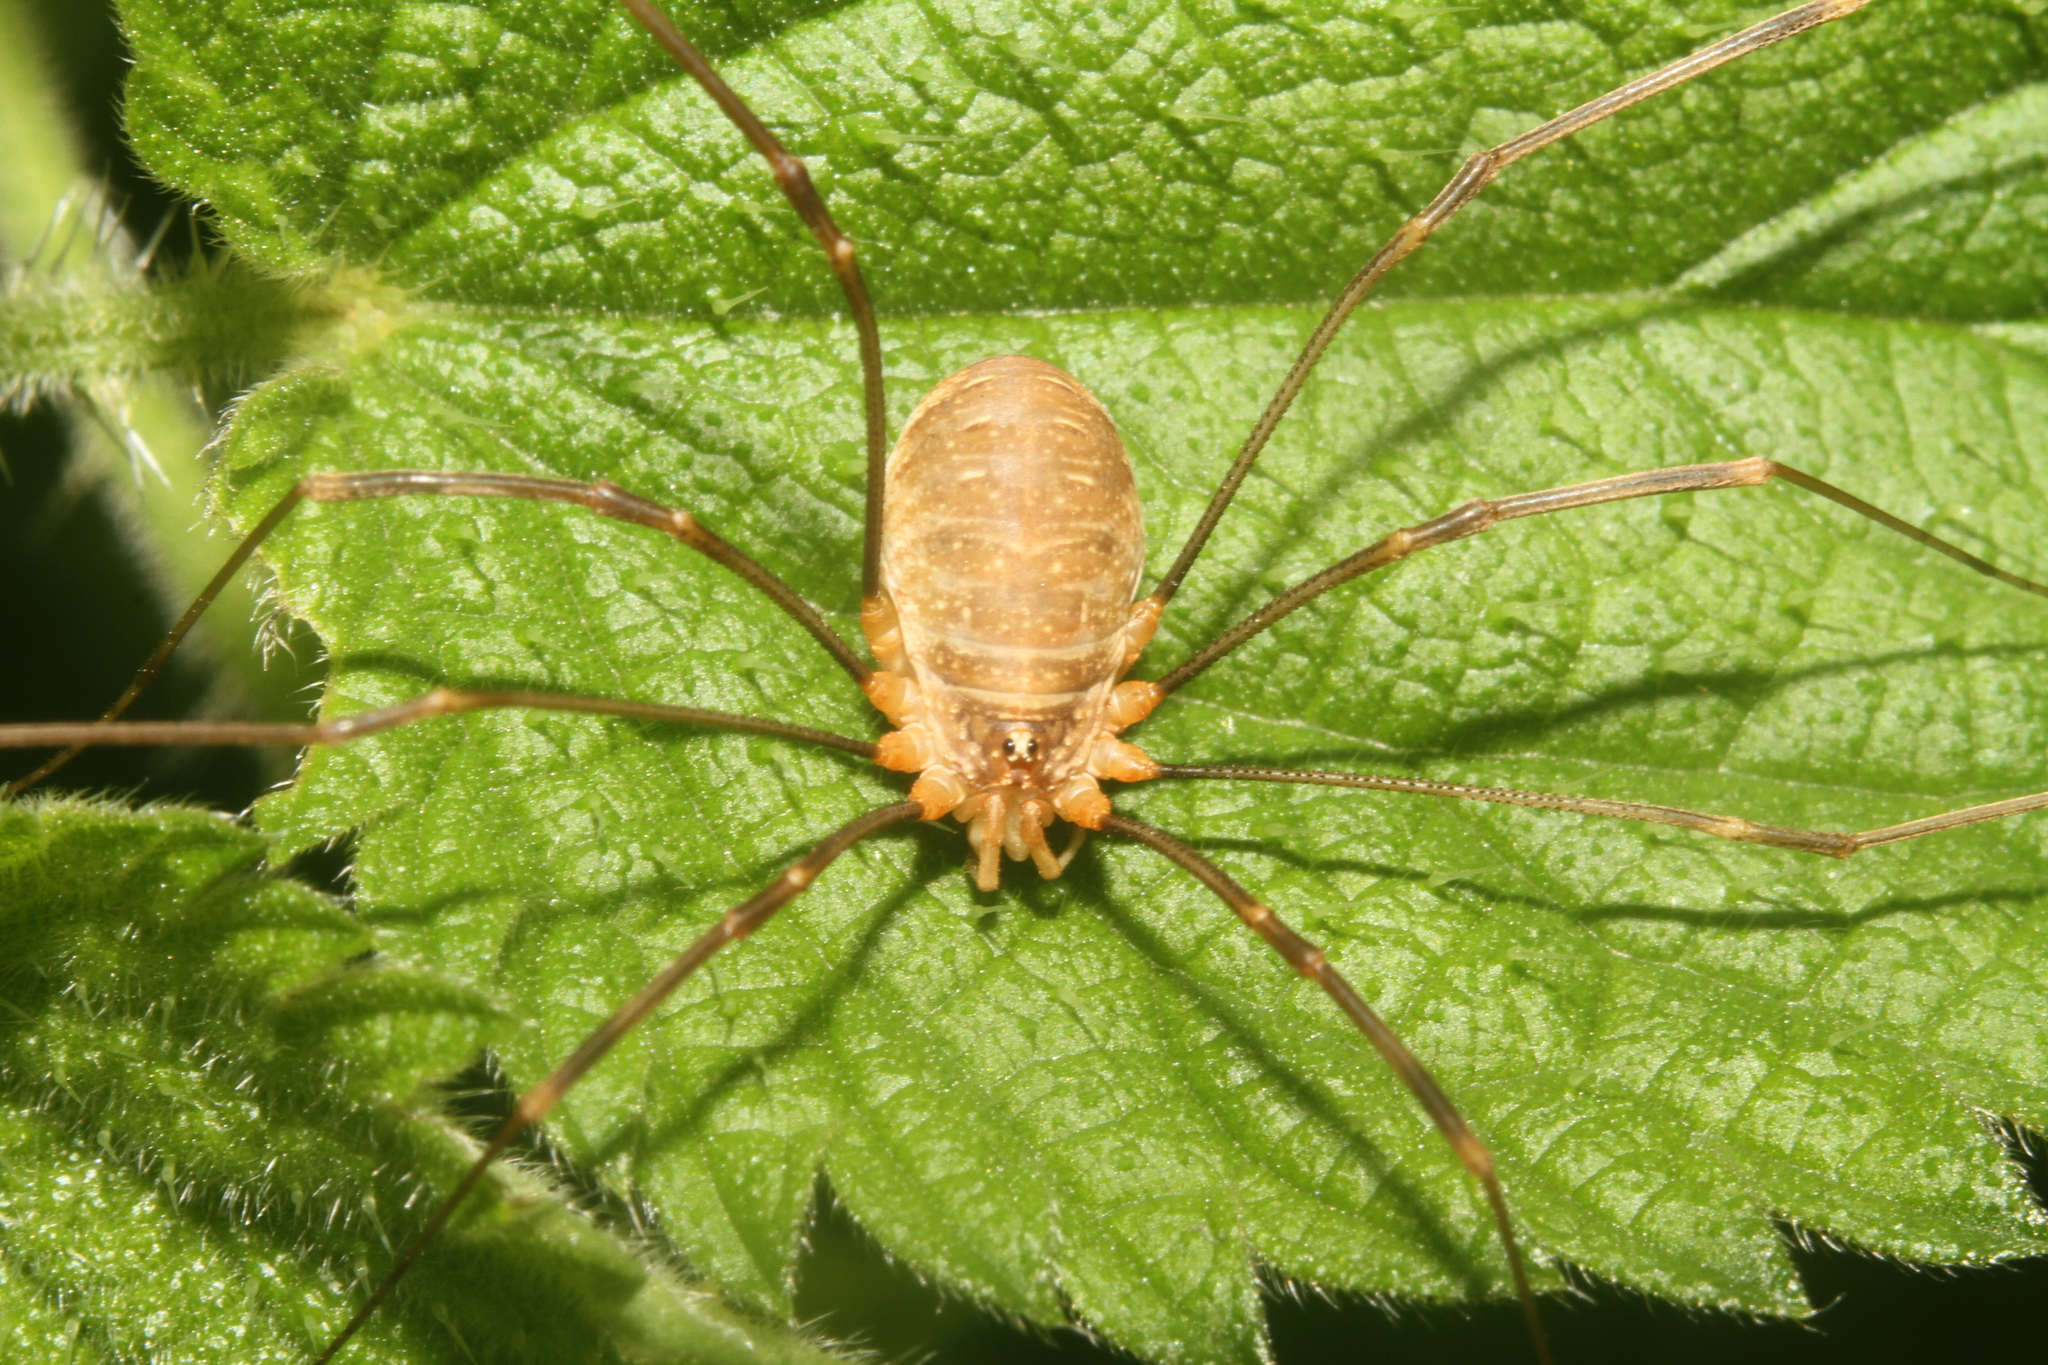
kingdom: Animalia
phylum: Arthropoda
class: Arachnida
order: Opiliones
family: Phalangiidae
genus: Opilio
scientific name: Opilio canestrinii
